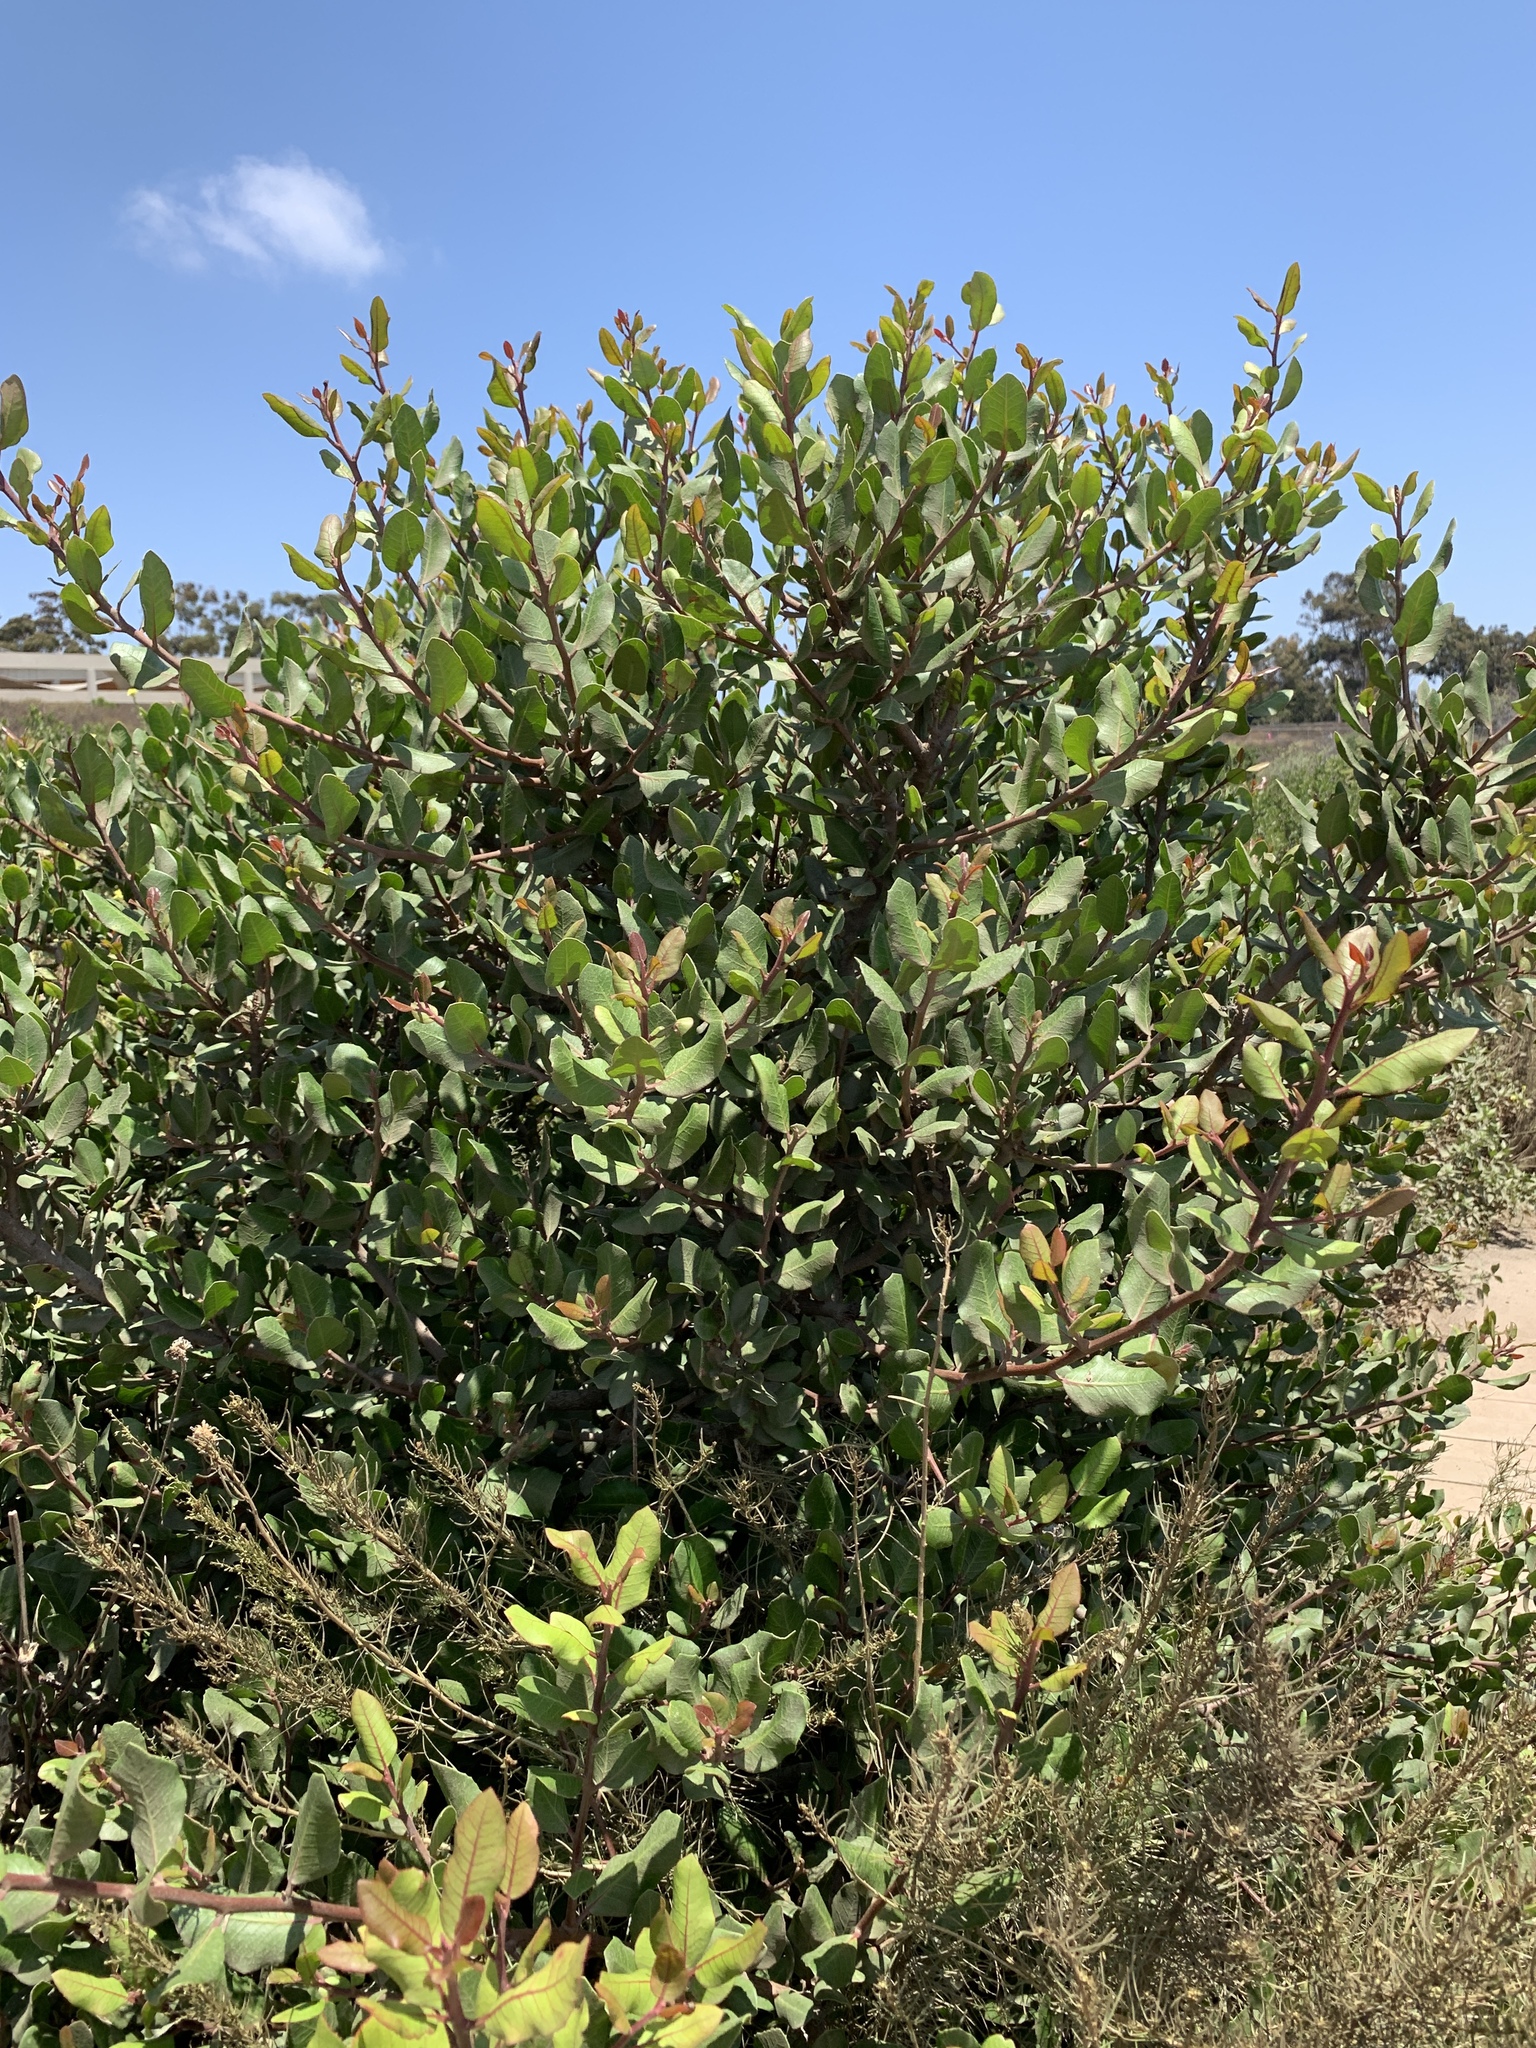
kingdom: Plantae
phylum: Tracheophyta
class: Magnoliopsida
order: Sapindales
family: Anacardiaceae
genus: Rhus
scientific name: Rhus integrifolia
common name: Lemonade sumac
